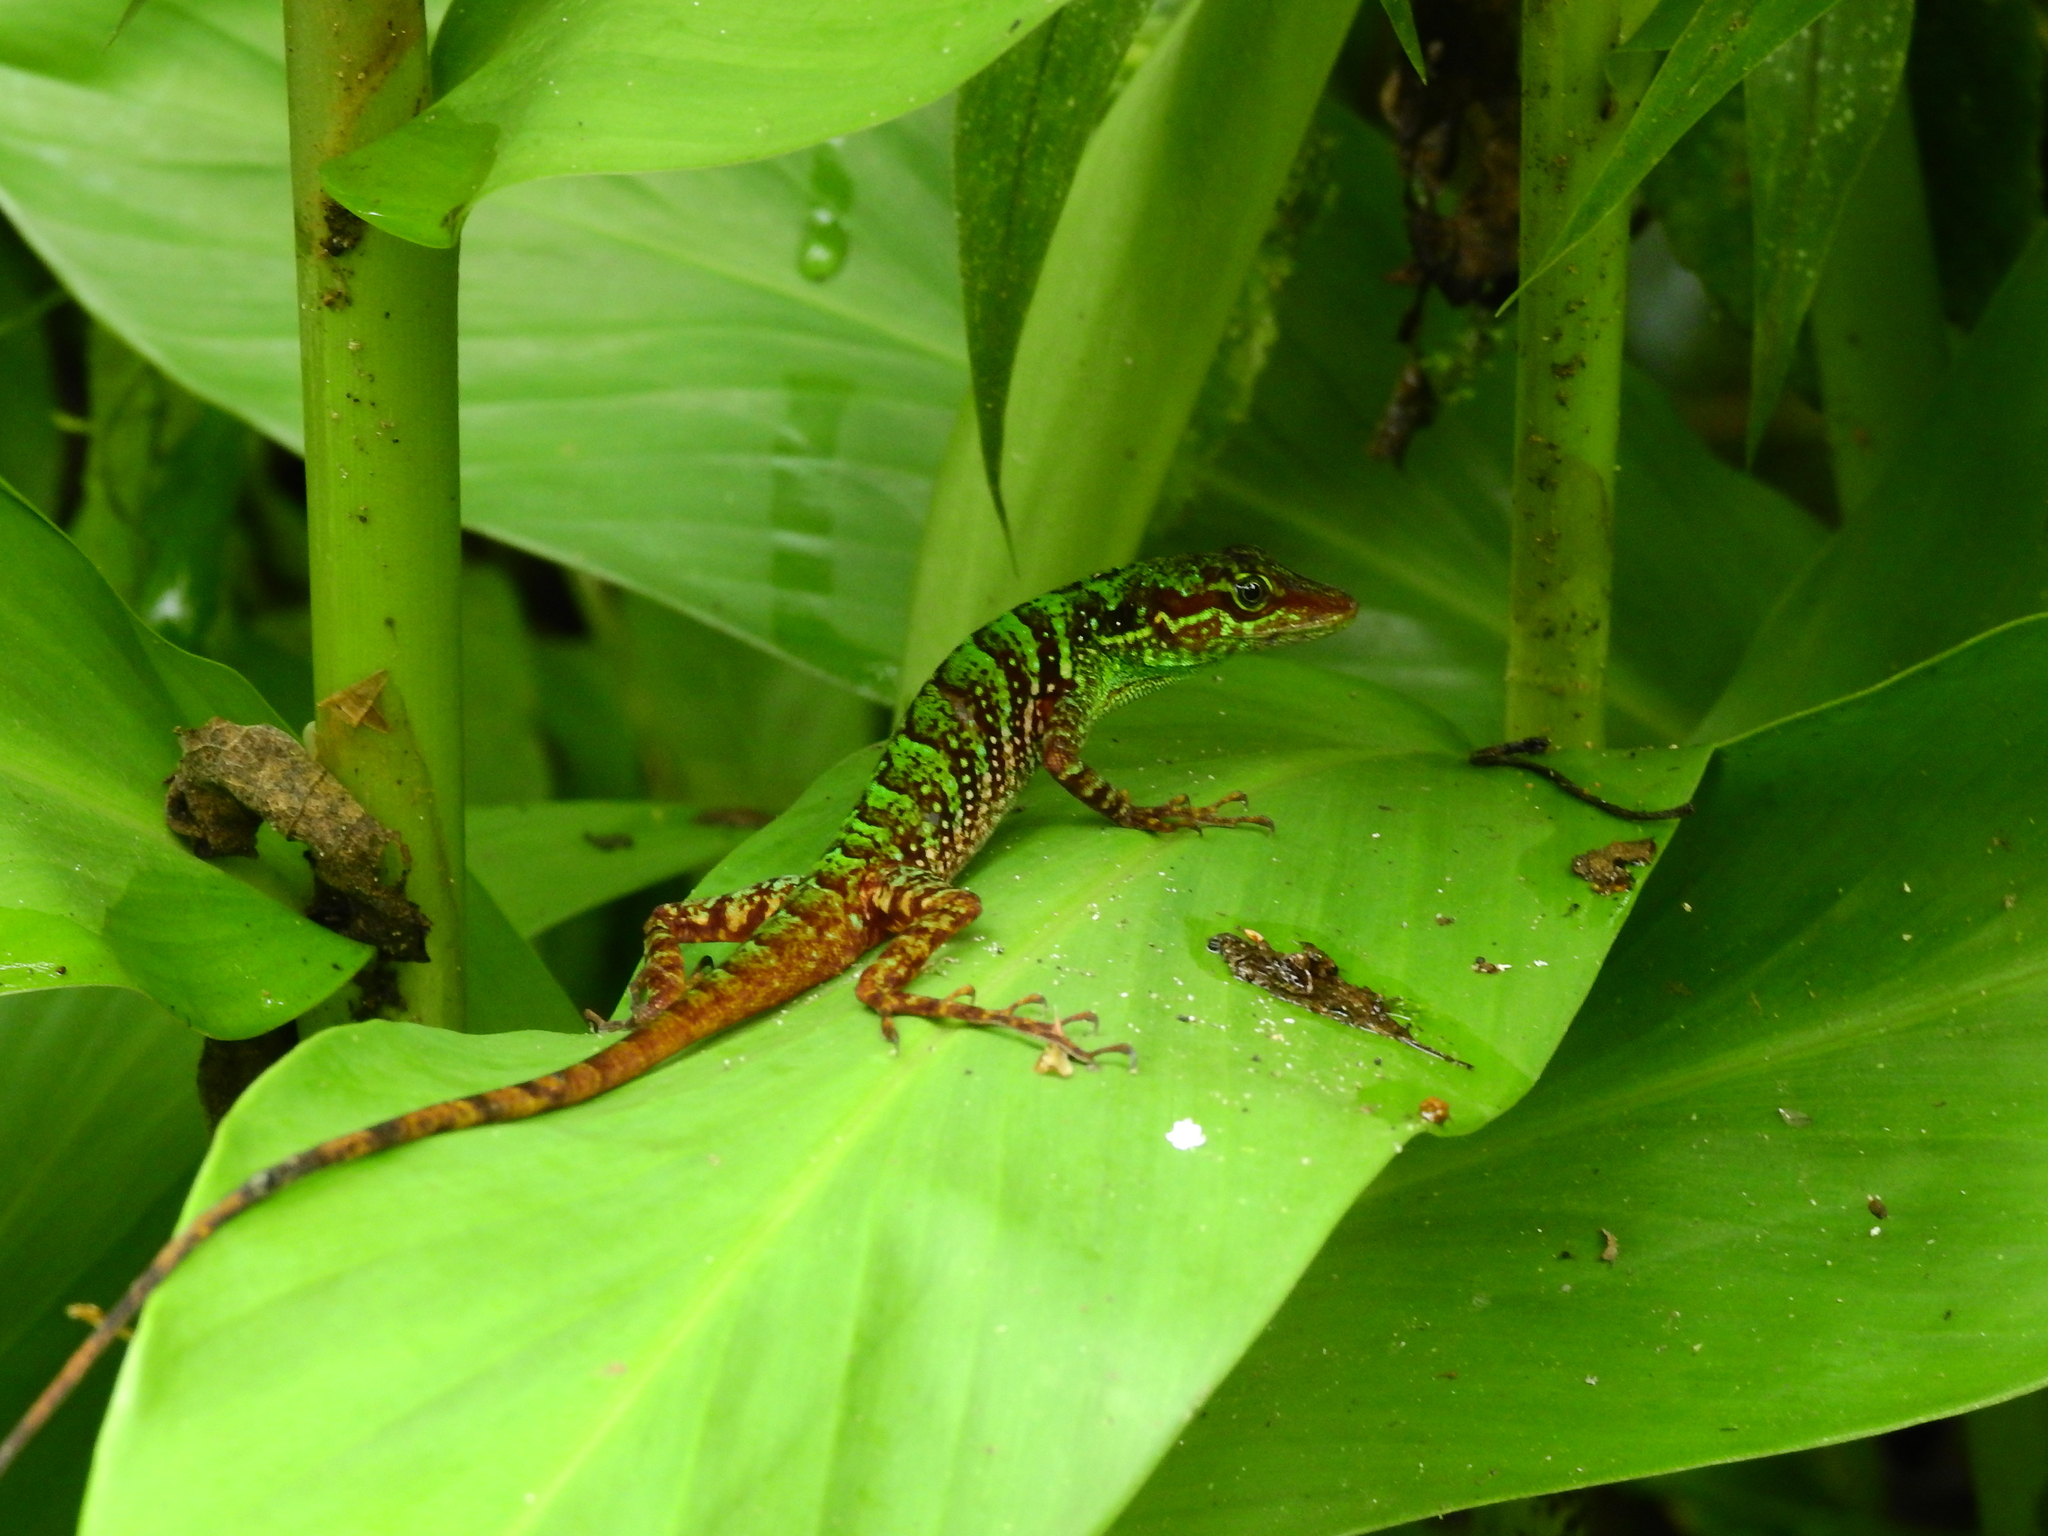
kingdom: Animalia
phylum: Chordata
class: Squamata
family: Dactyloidae
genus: Anolis
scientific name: Anolis ventrimaculatus
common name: Speckled anole
